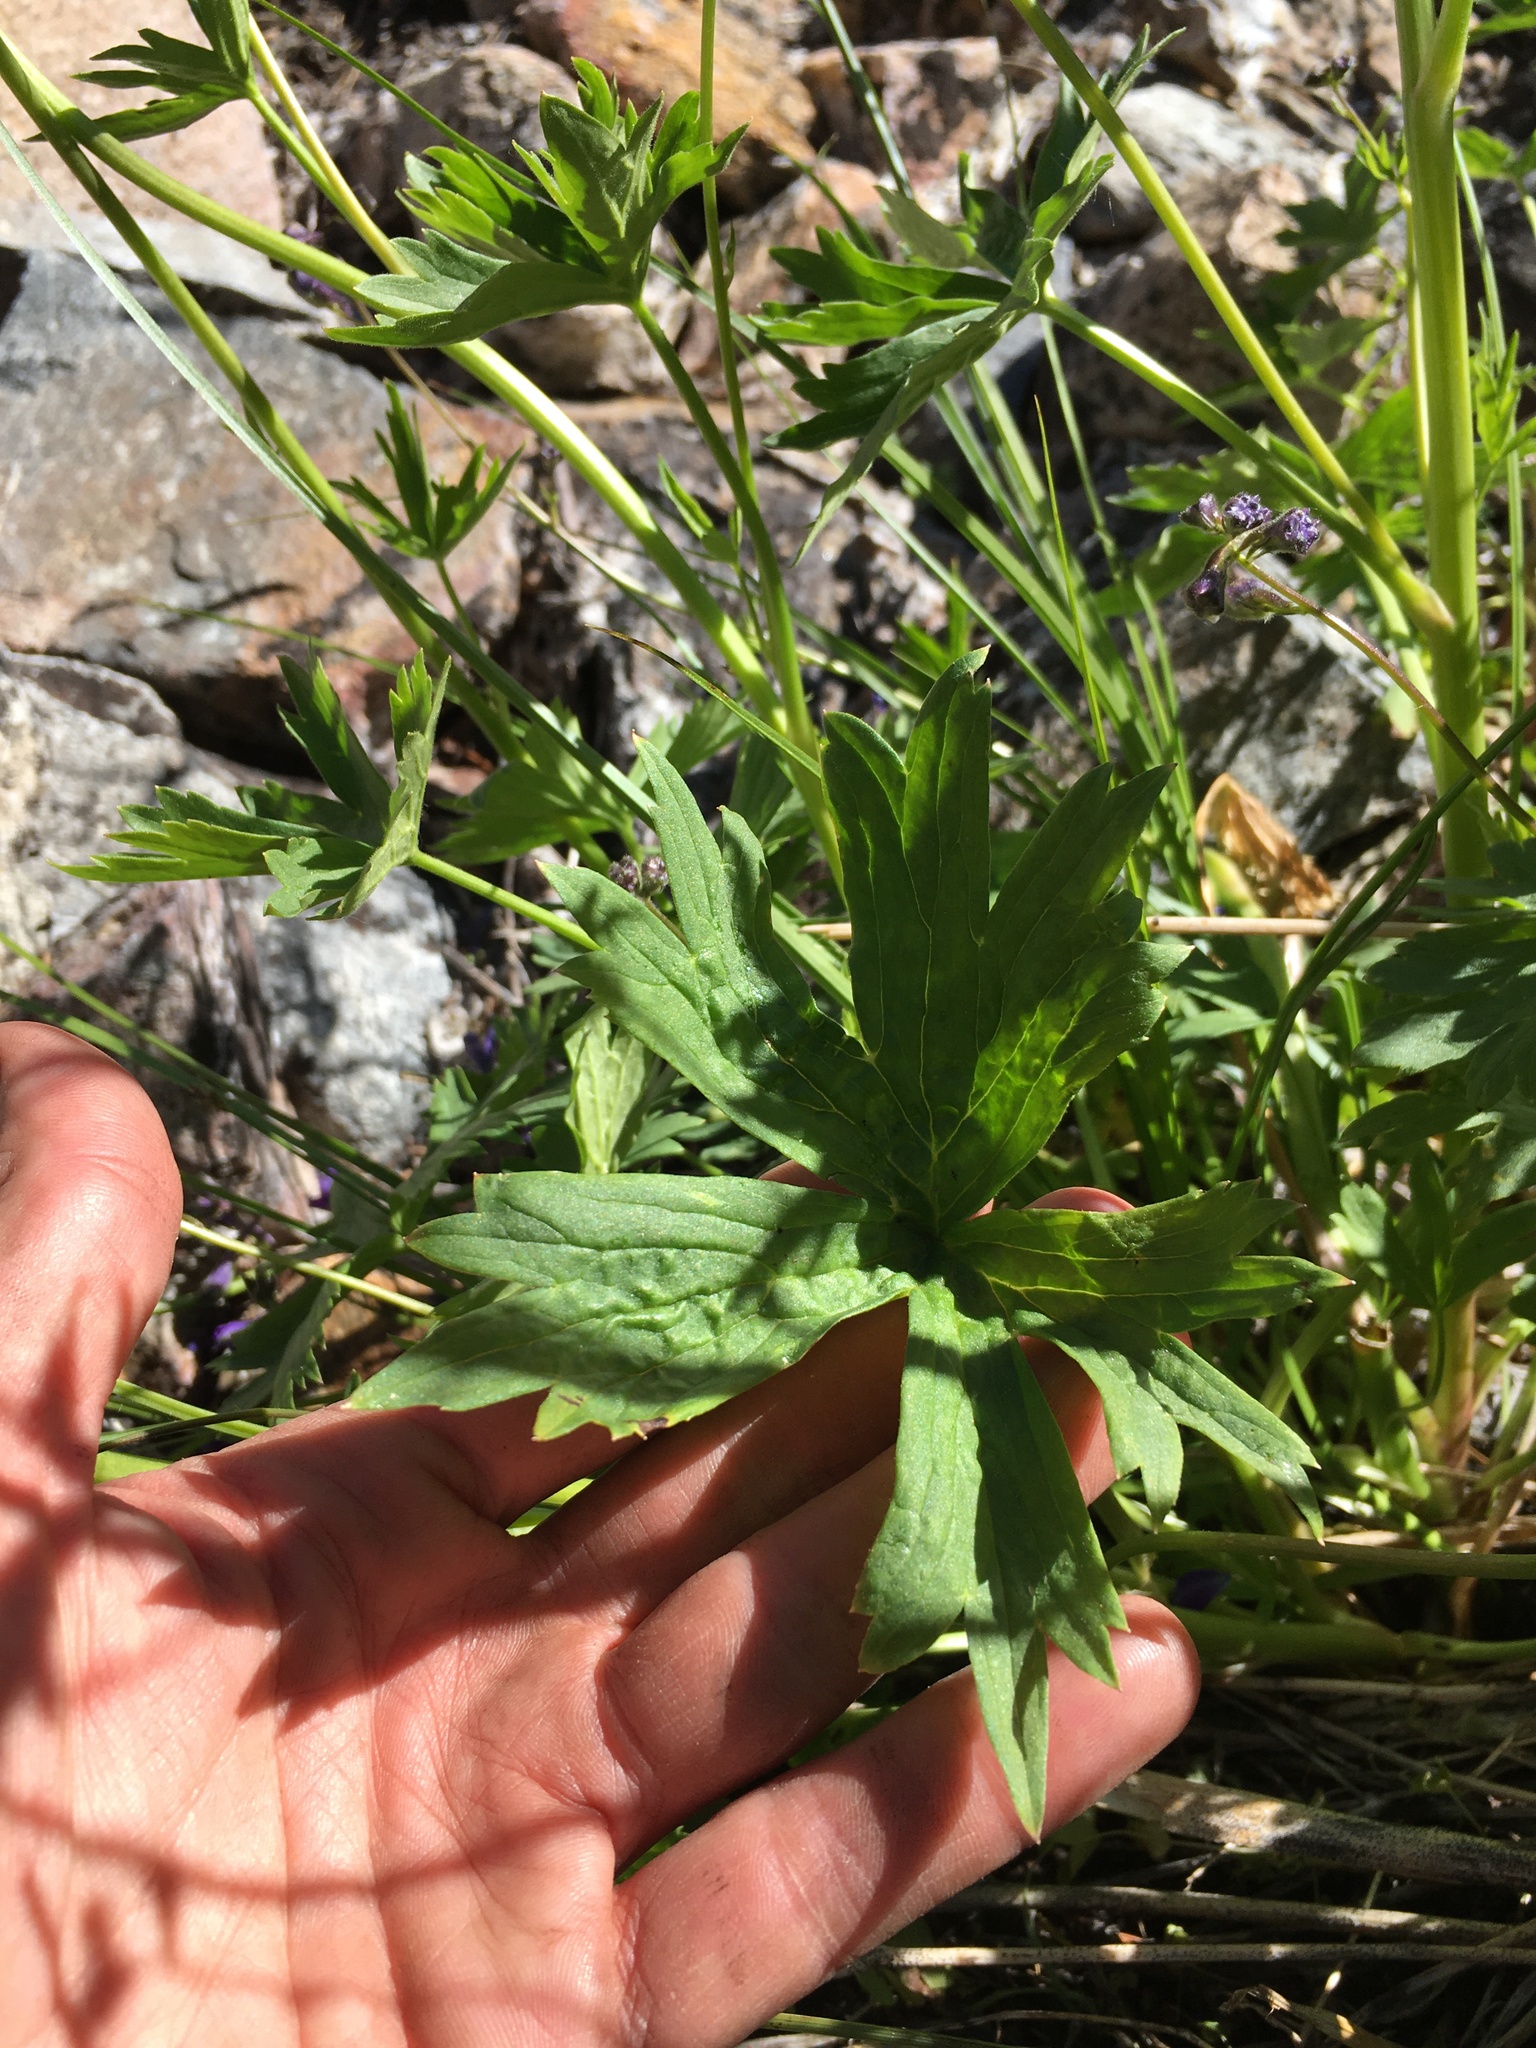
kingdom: Plantae
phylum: Tracheophyta
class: Magnoliopsida
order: Ranunculales
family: Ranunculaceae
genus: Delphinium
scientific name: Delphinium polycladon
